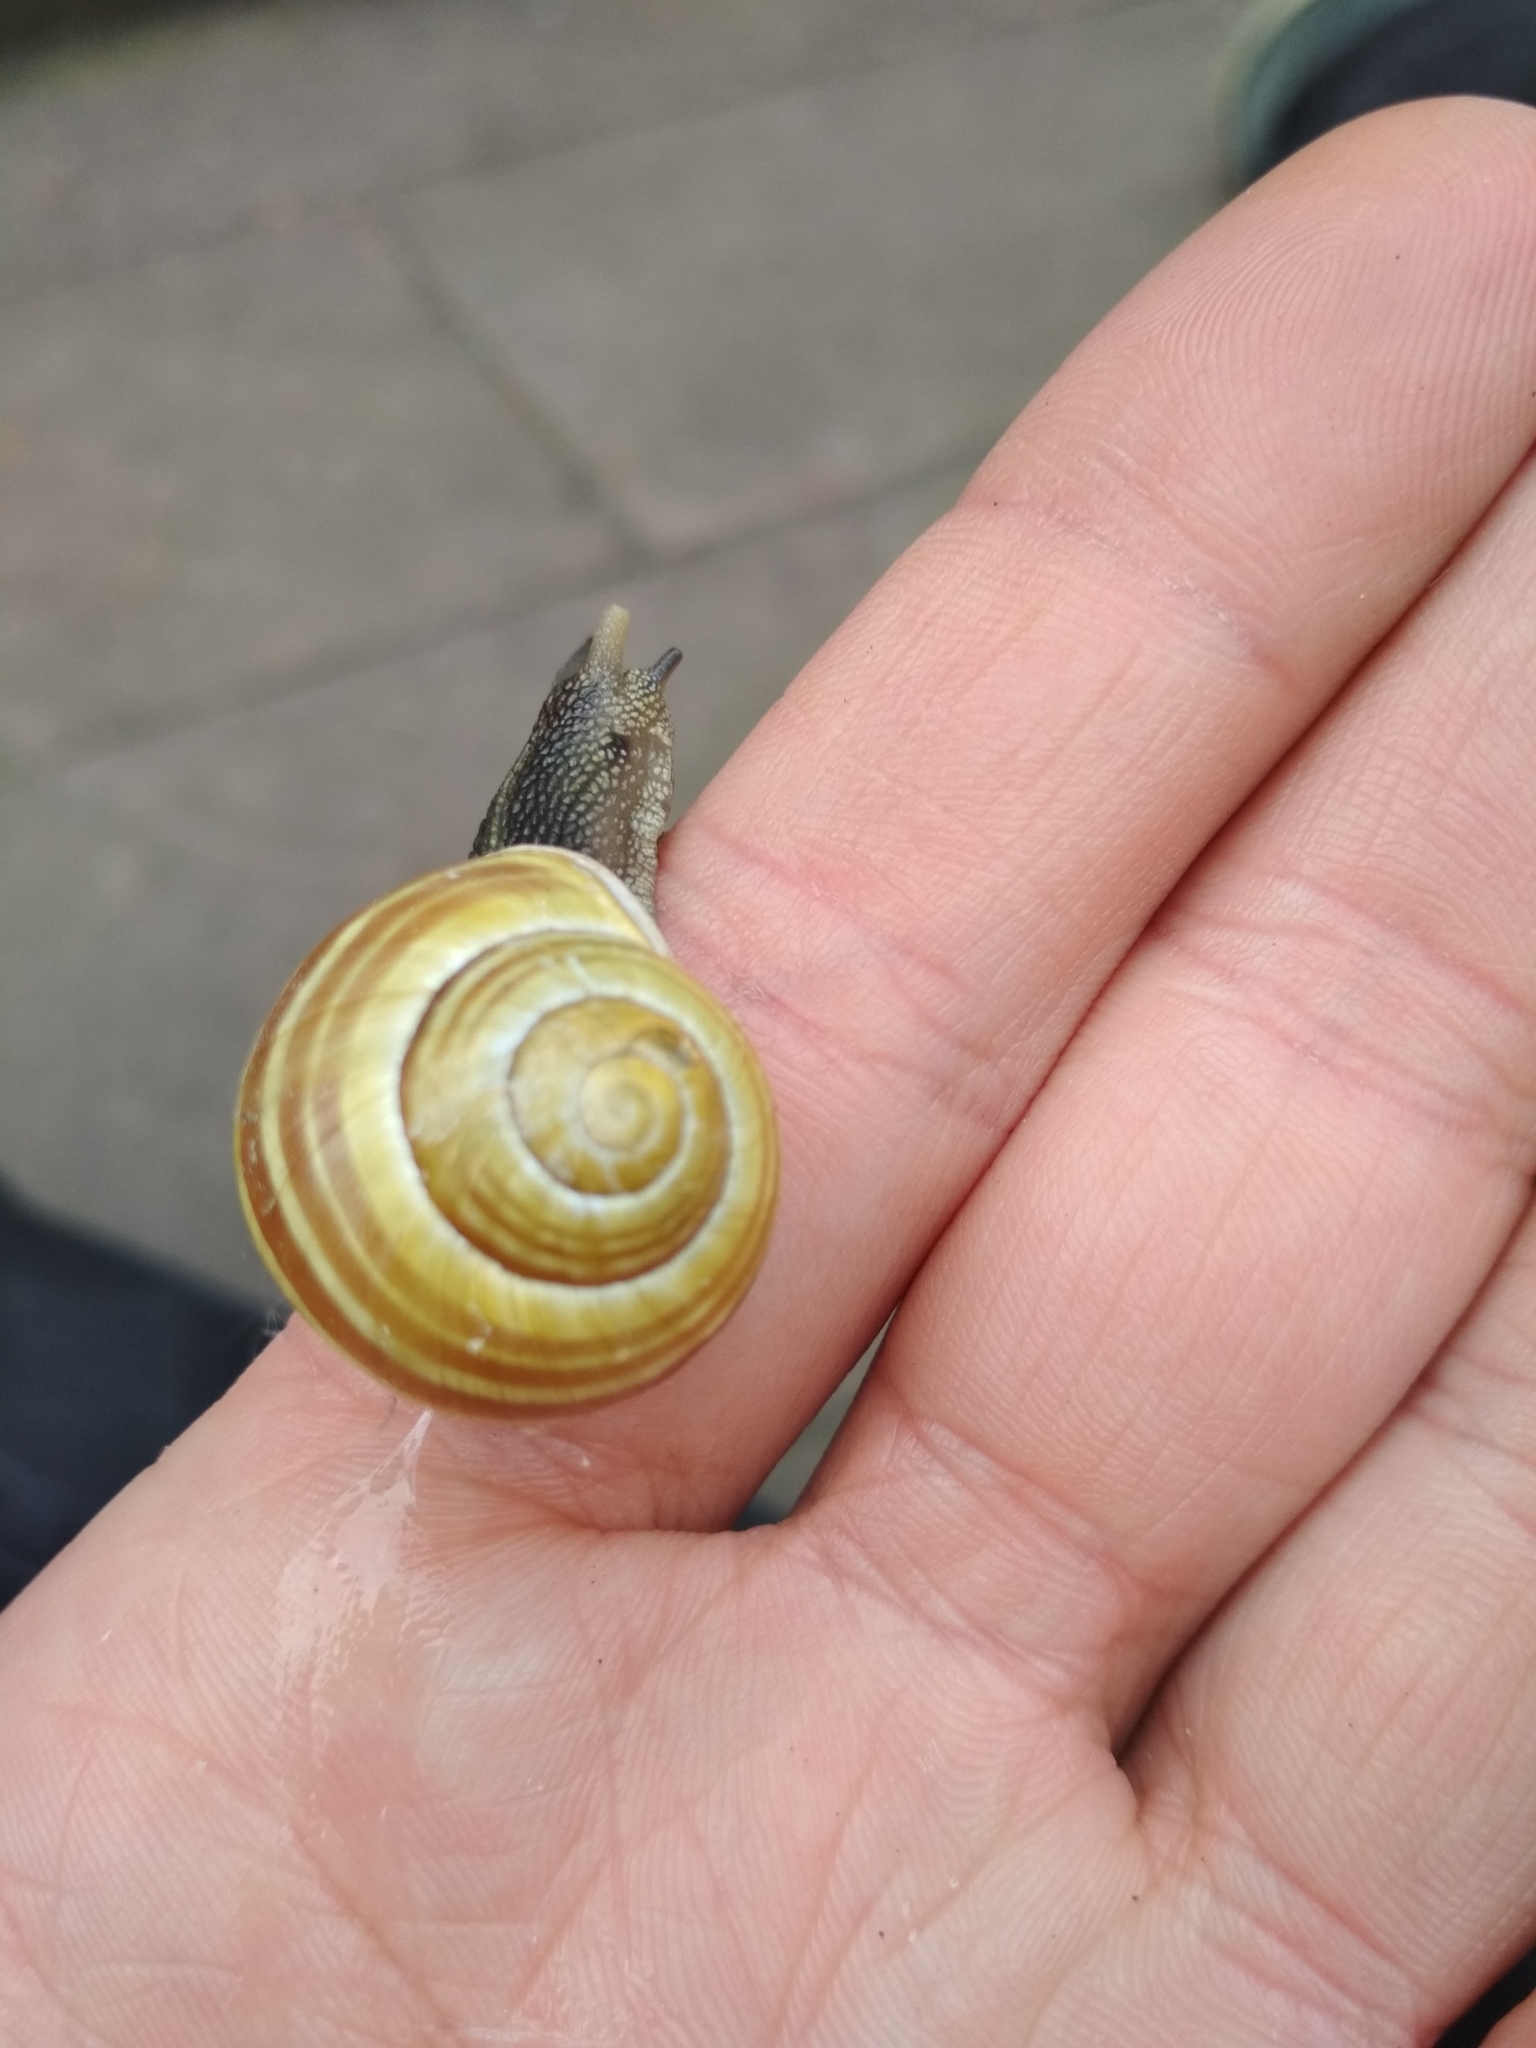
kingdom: Animalia
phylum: Mollusca
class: Gastropoda
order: Stylommatophora
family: Helicidae
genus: Cepaea
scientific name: Cepaea hortensis
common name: White-lip gardensnail
